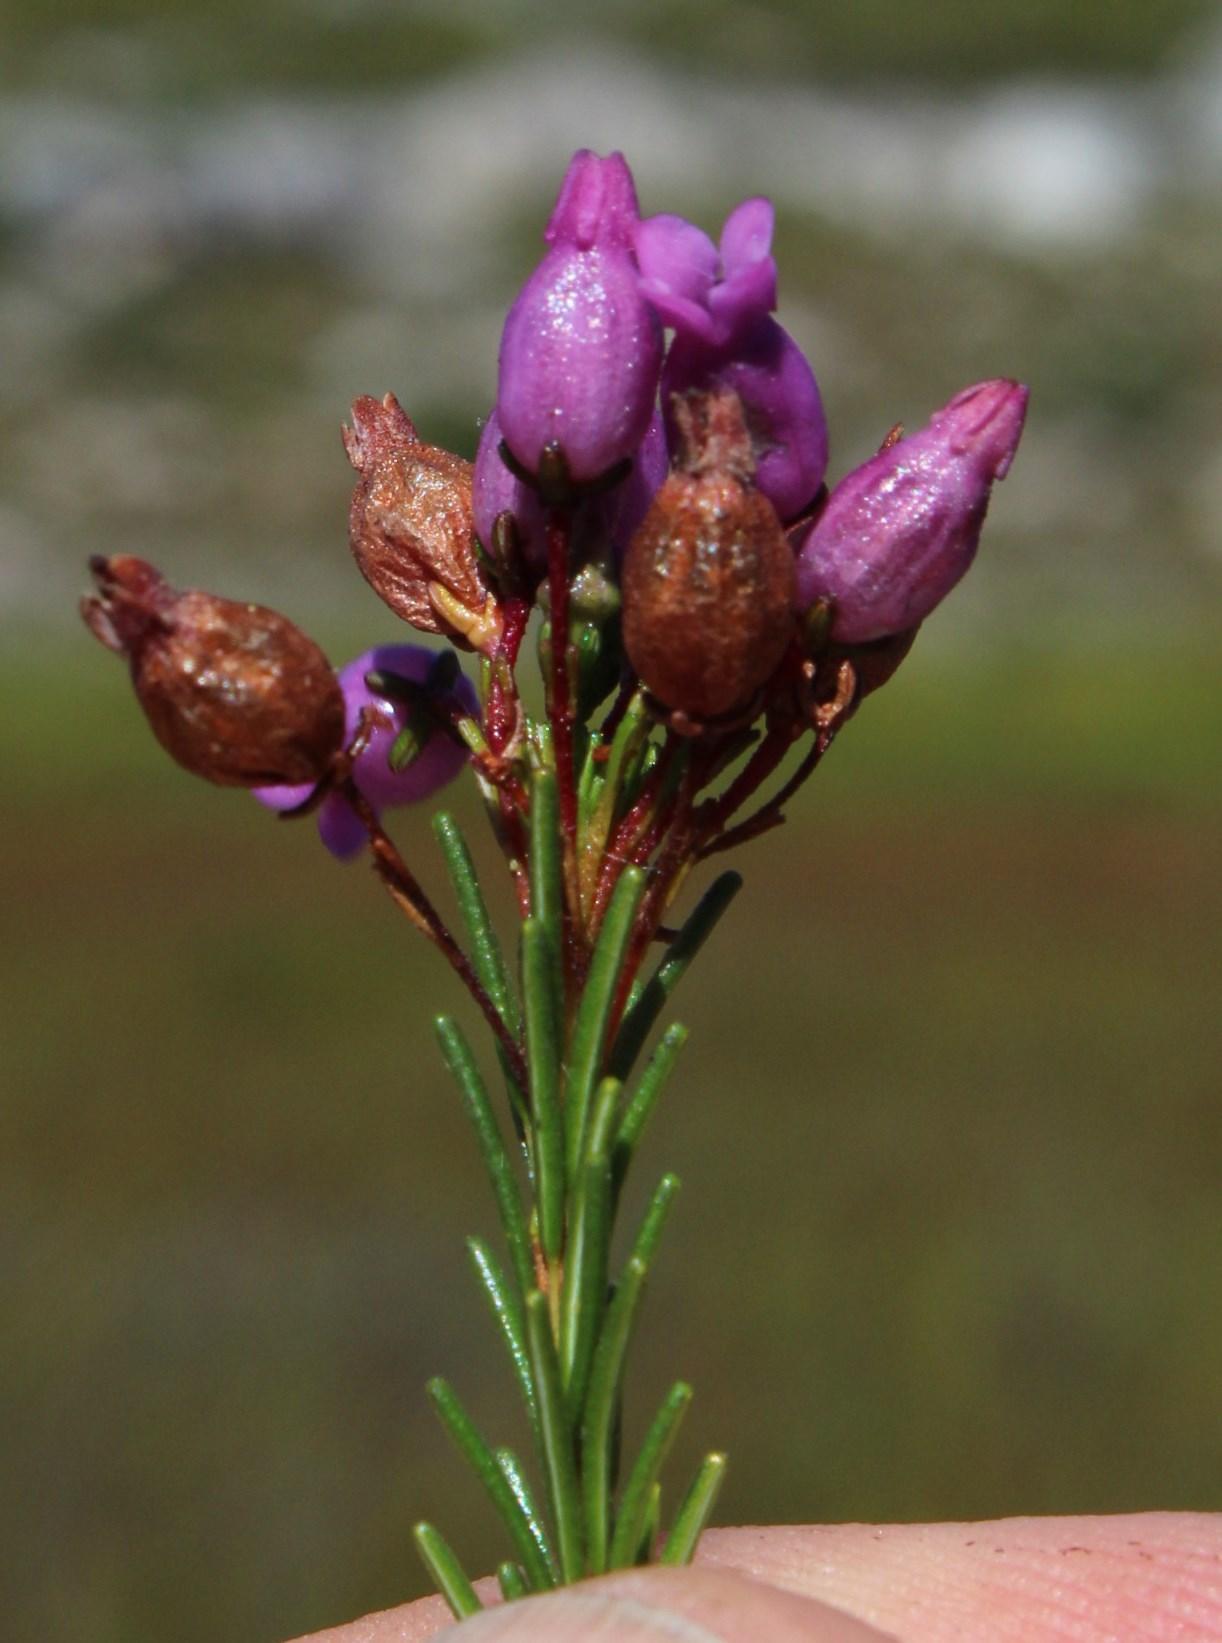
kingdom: Plantae
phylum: Tracheophyta
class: Magnoliopsida
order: Ericales
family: Ericaceae
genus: Erica
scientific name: Erica obliqua
